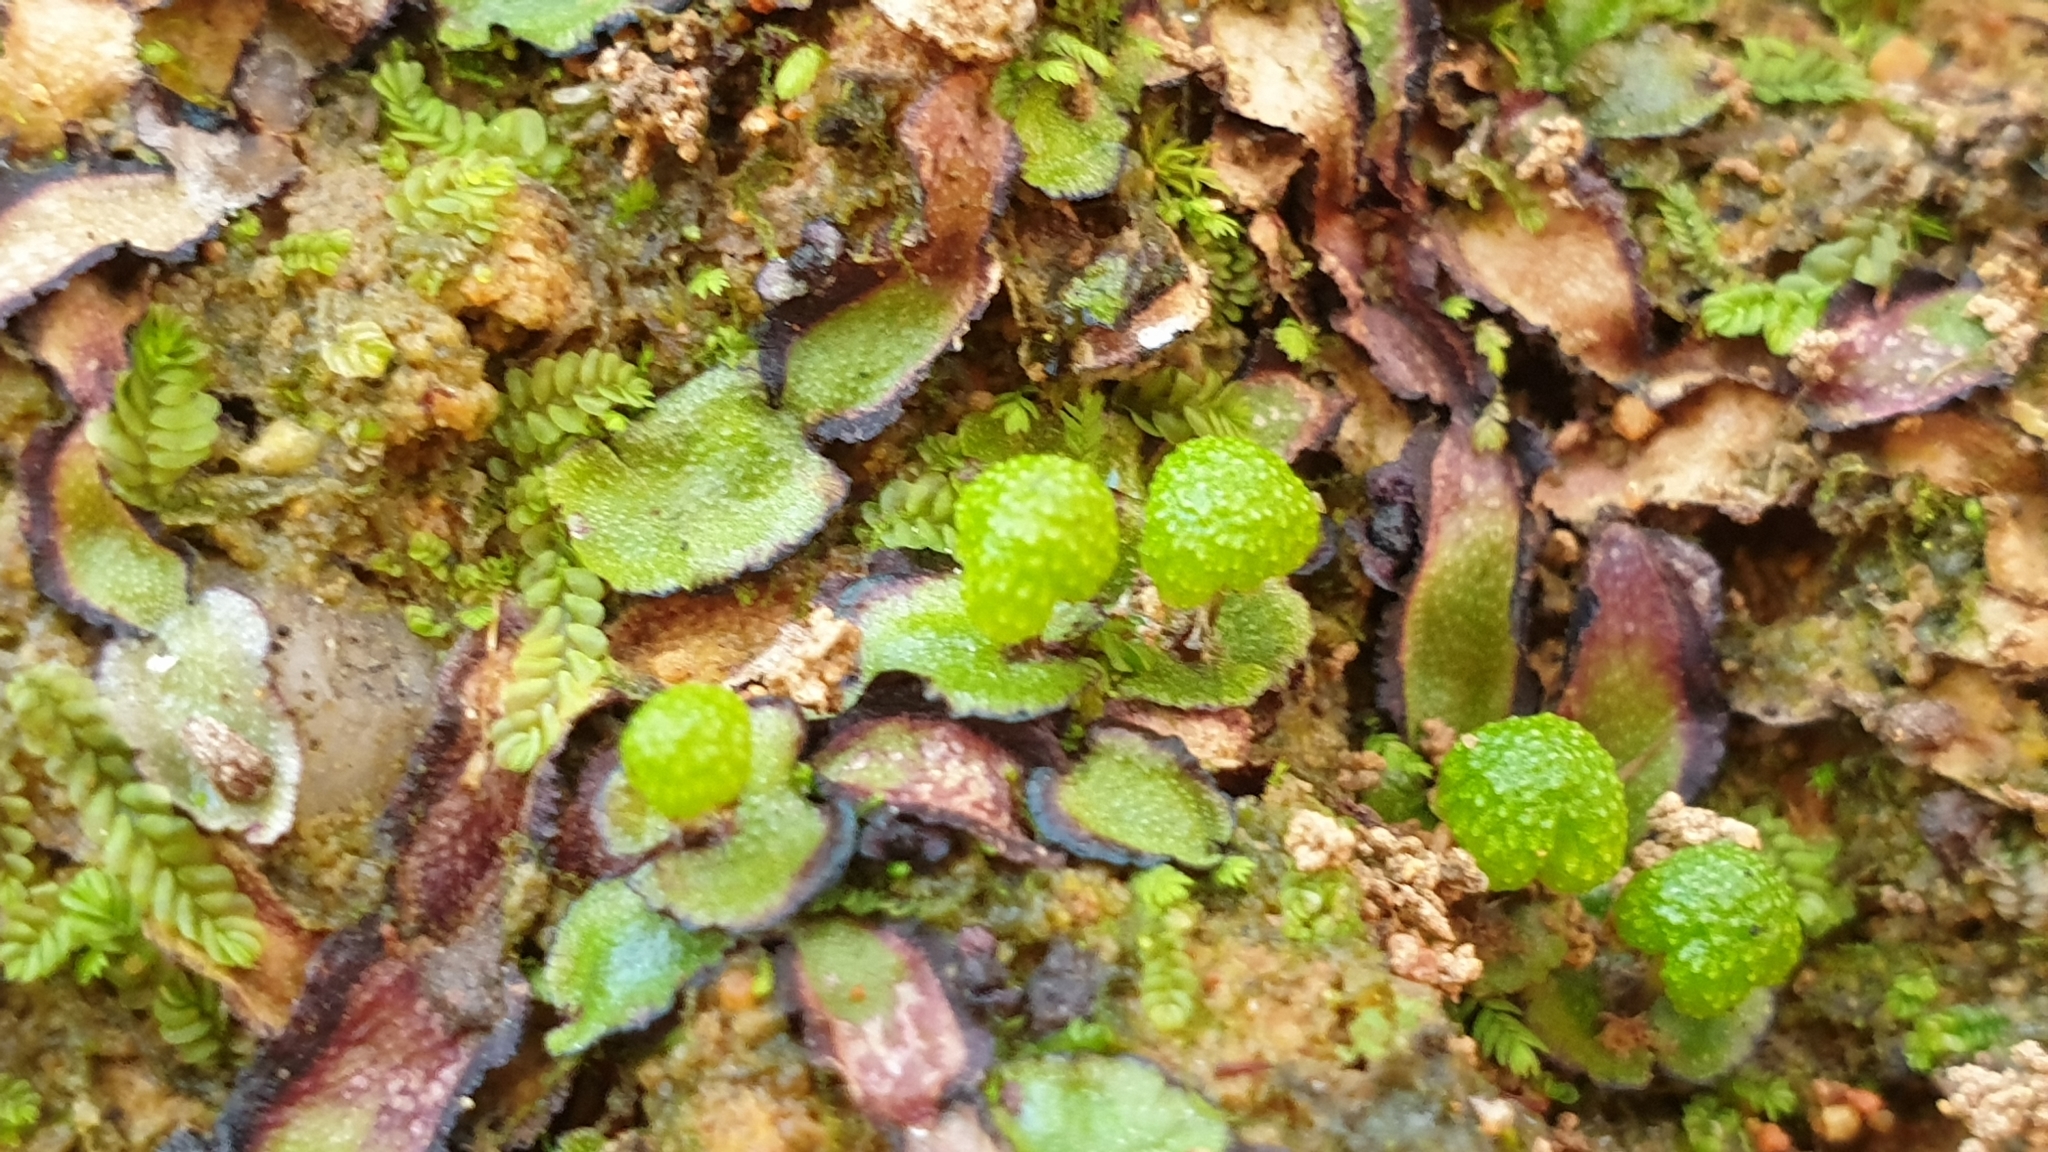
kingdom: Plantae
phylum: Marchantiophyta
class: Marchantiopsida
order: Marchantiales
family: Aytoniaceae
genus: Asterella
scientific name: Asterella drummondii
